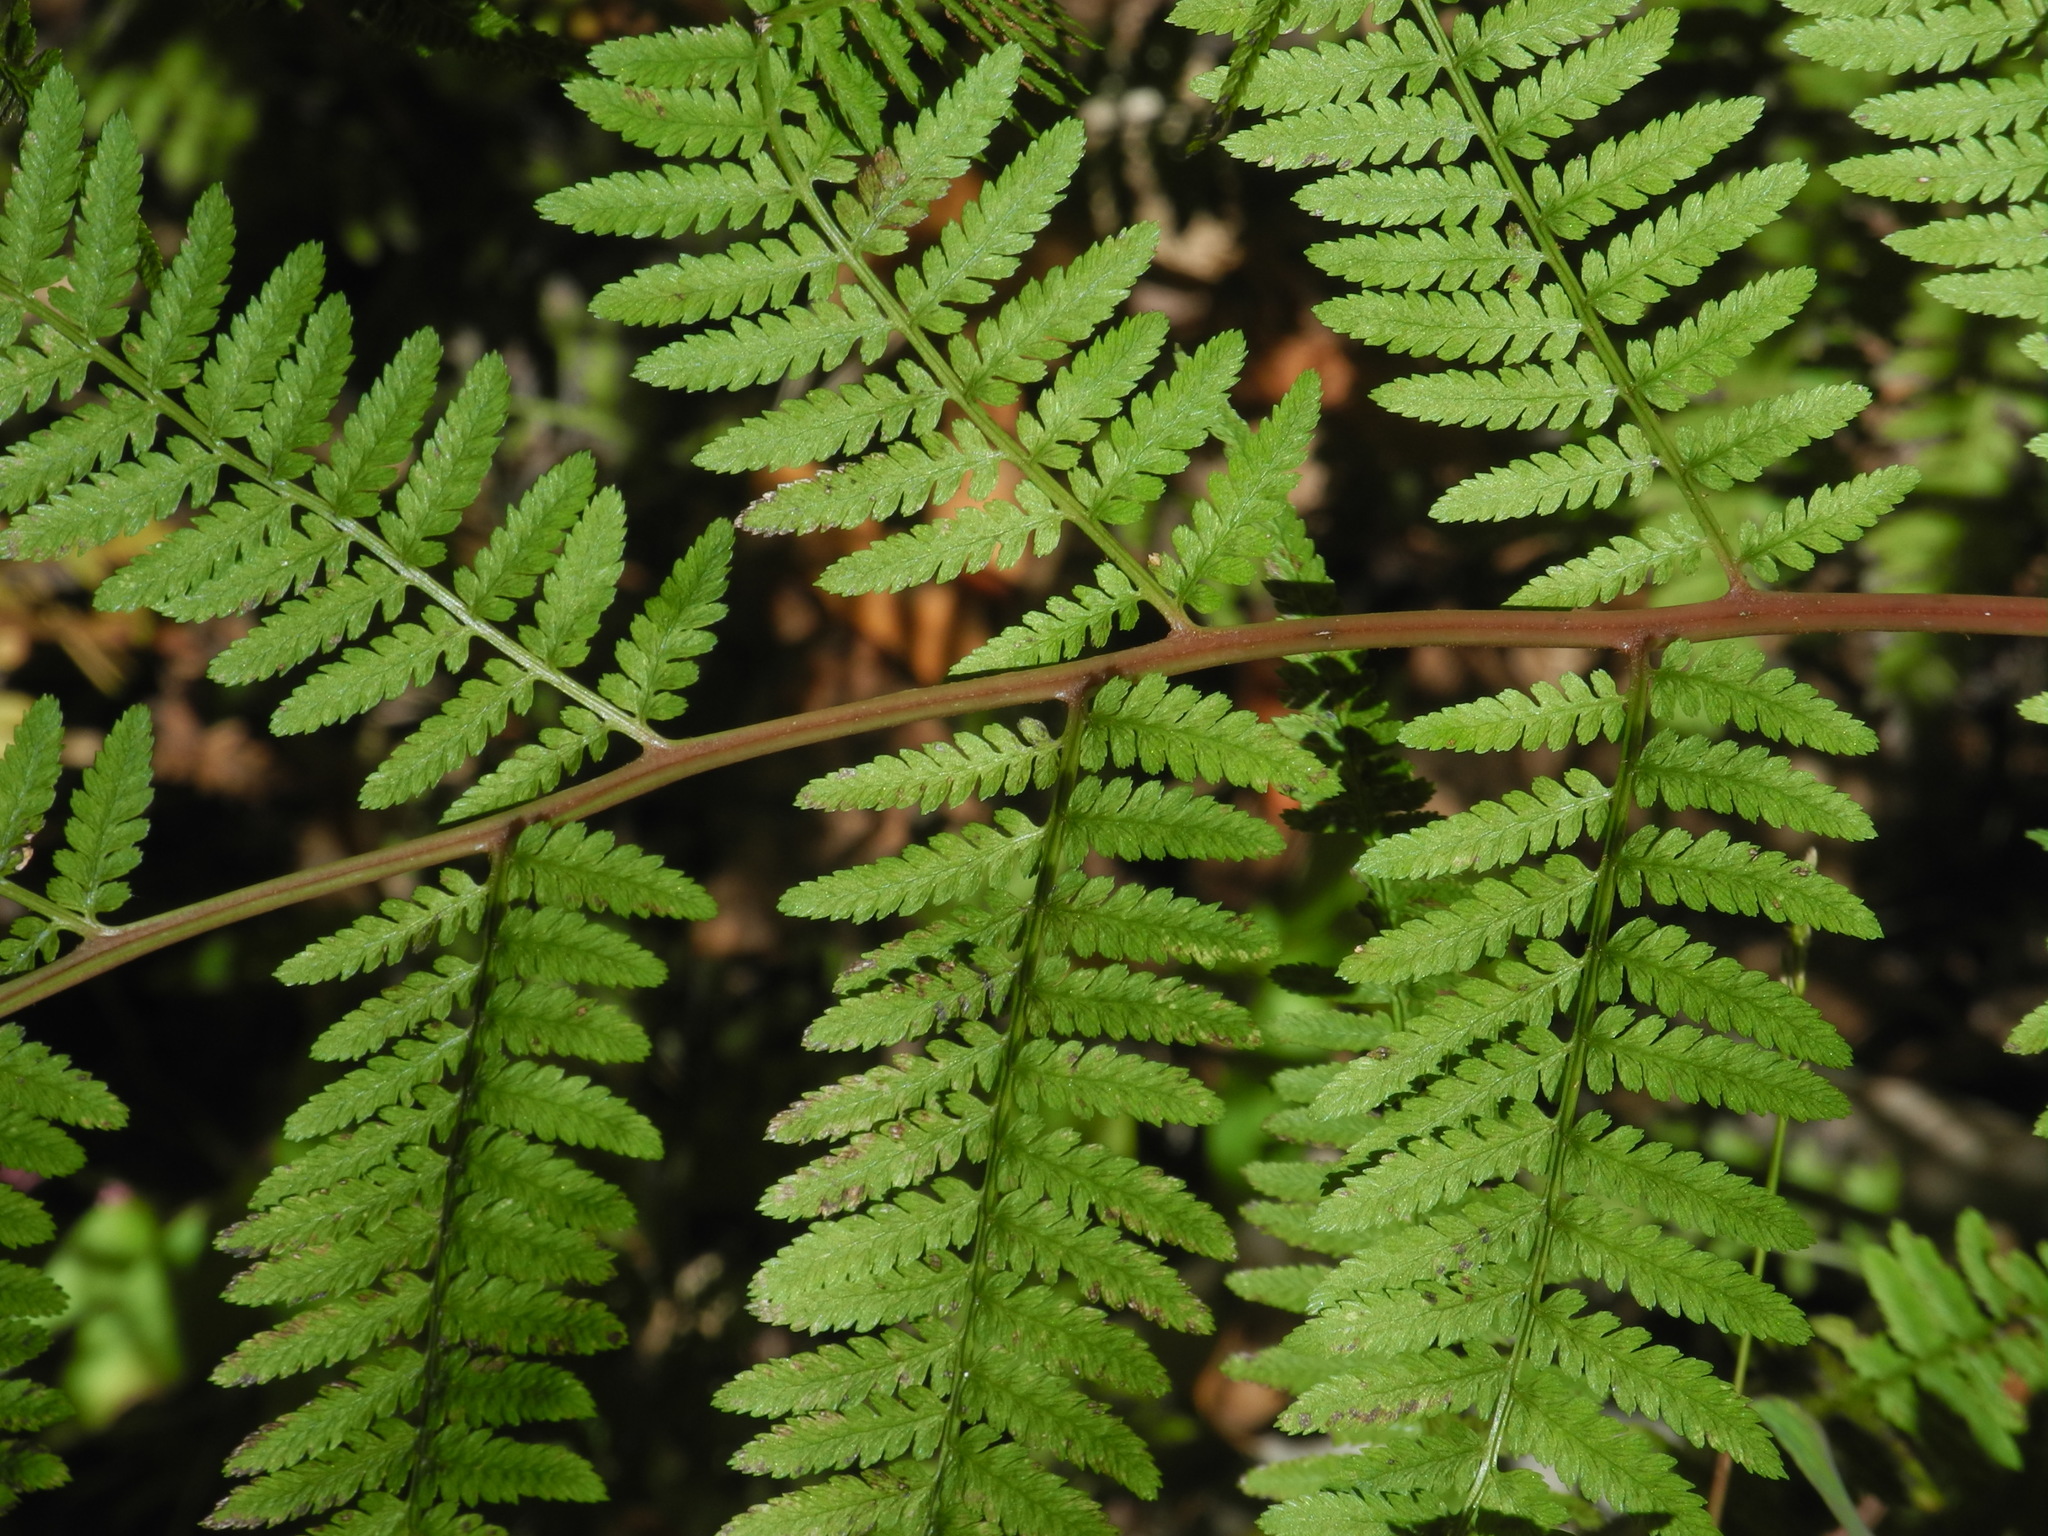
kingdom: Plantae
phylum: Tracheophyta
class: Polypodiopsida
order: Polypodiales
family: Athyriaceae
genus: Athyrium
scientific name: Athyrium asplenioides
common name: Southern lady fern
